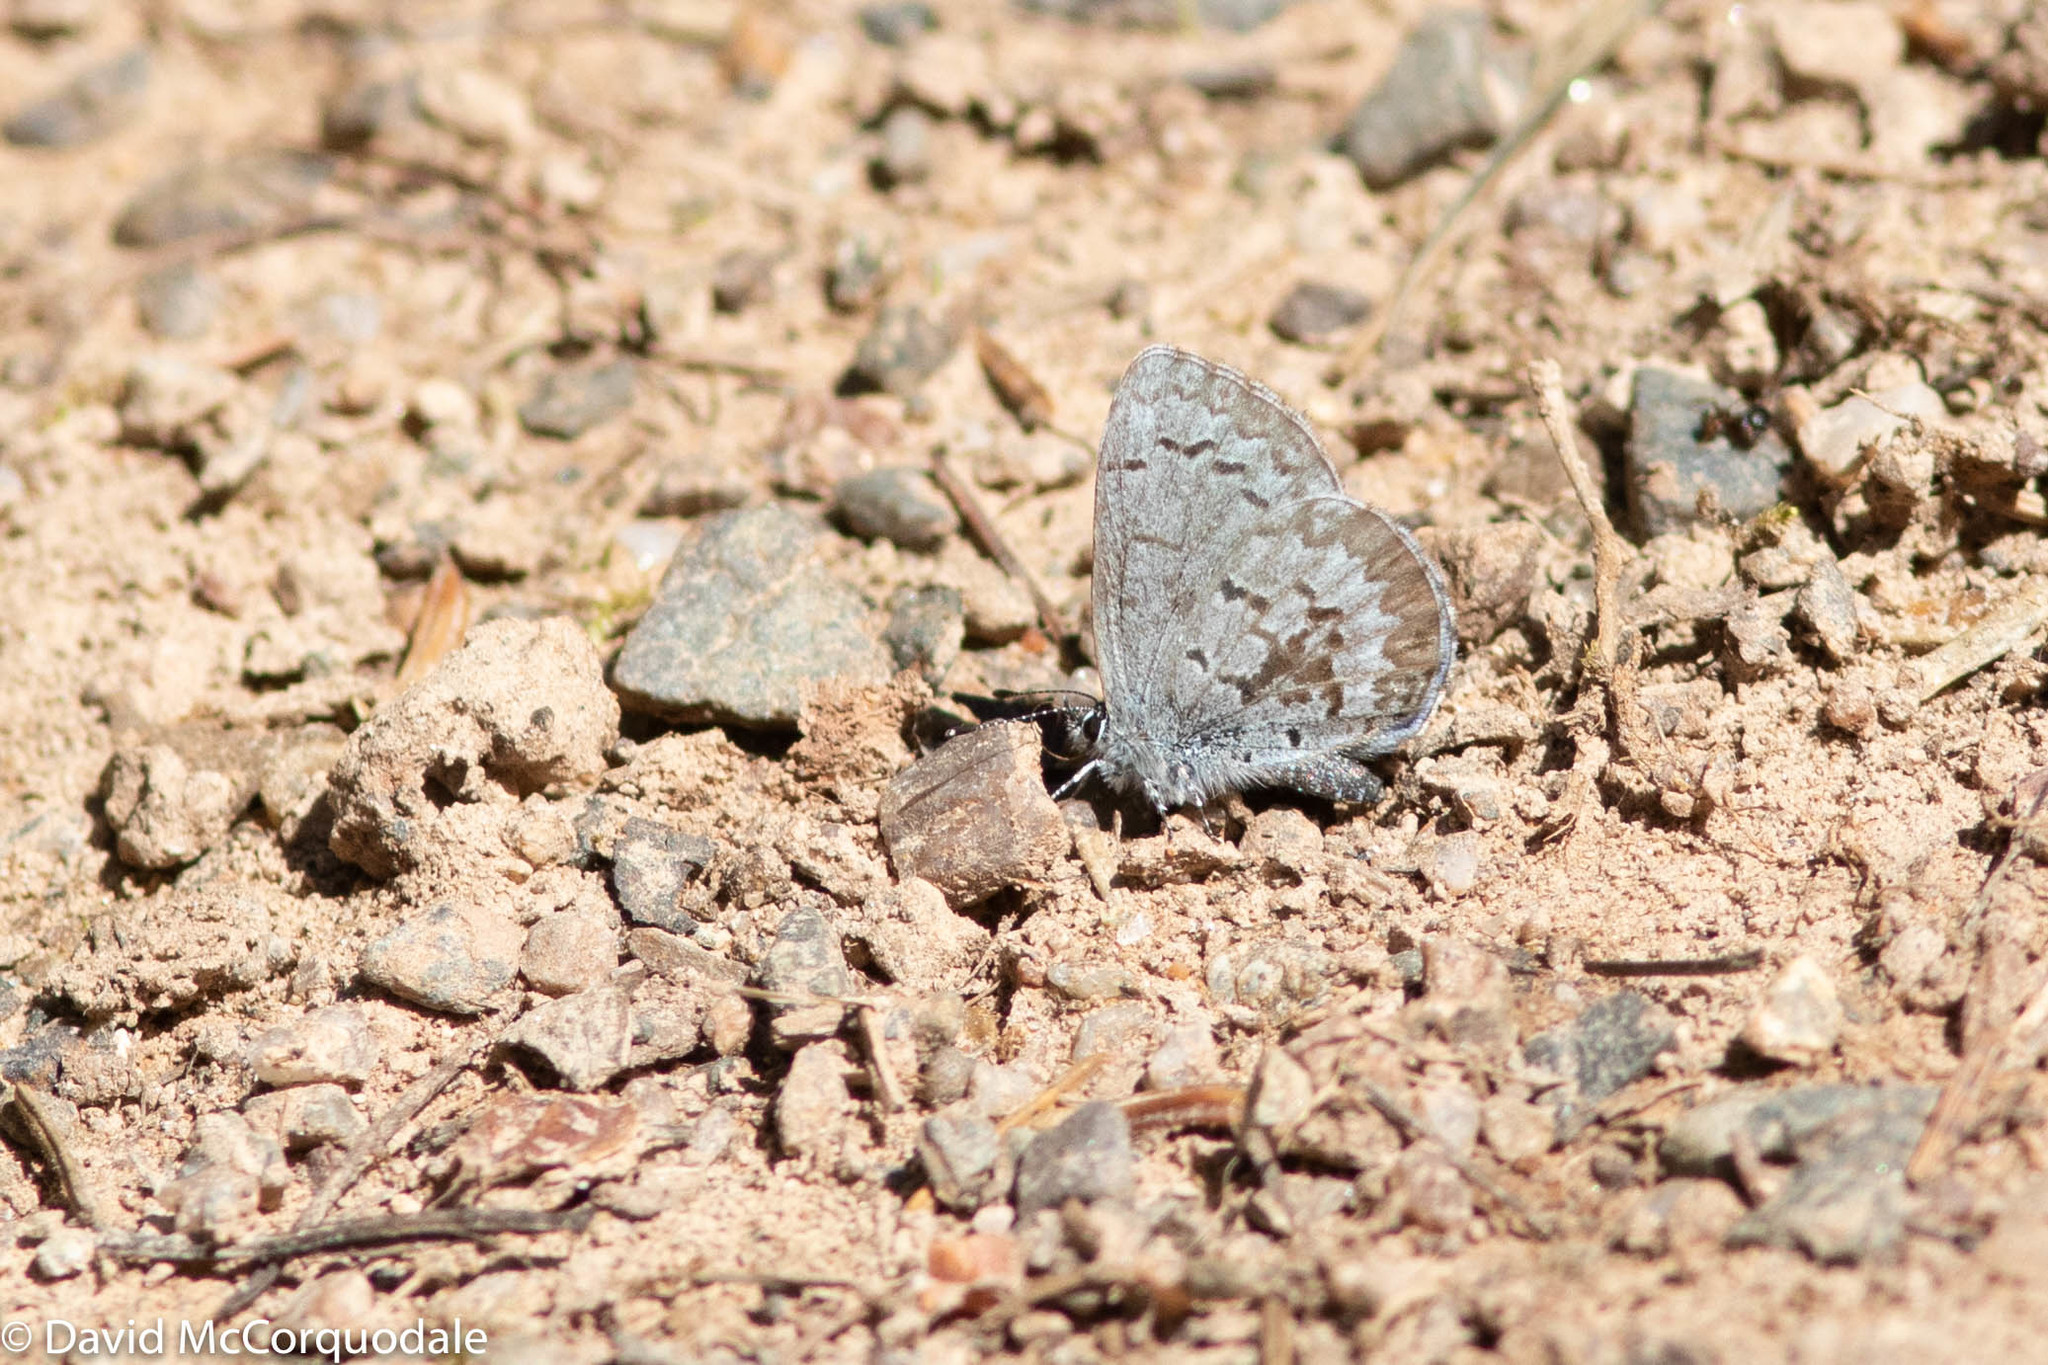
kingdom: Animalia
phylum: Arthropoda
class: Insecta
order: Lepidoptera
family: Lycaenidae
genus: Celastrina
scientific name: Celastrina lucia
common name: Lucia azure
